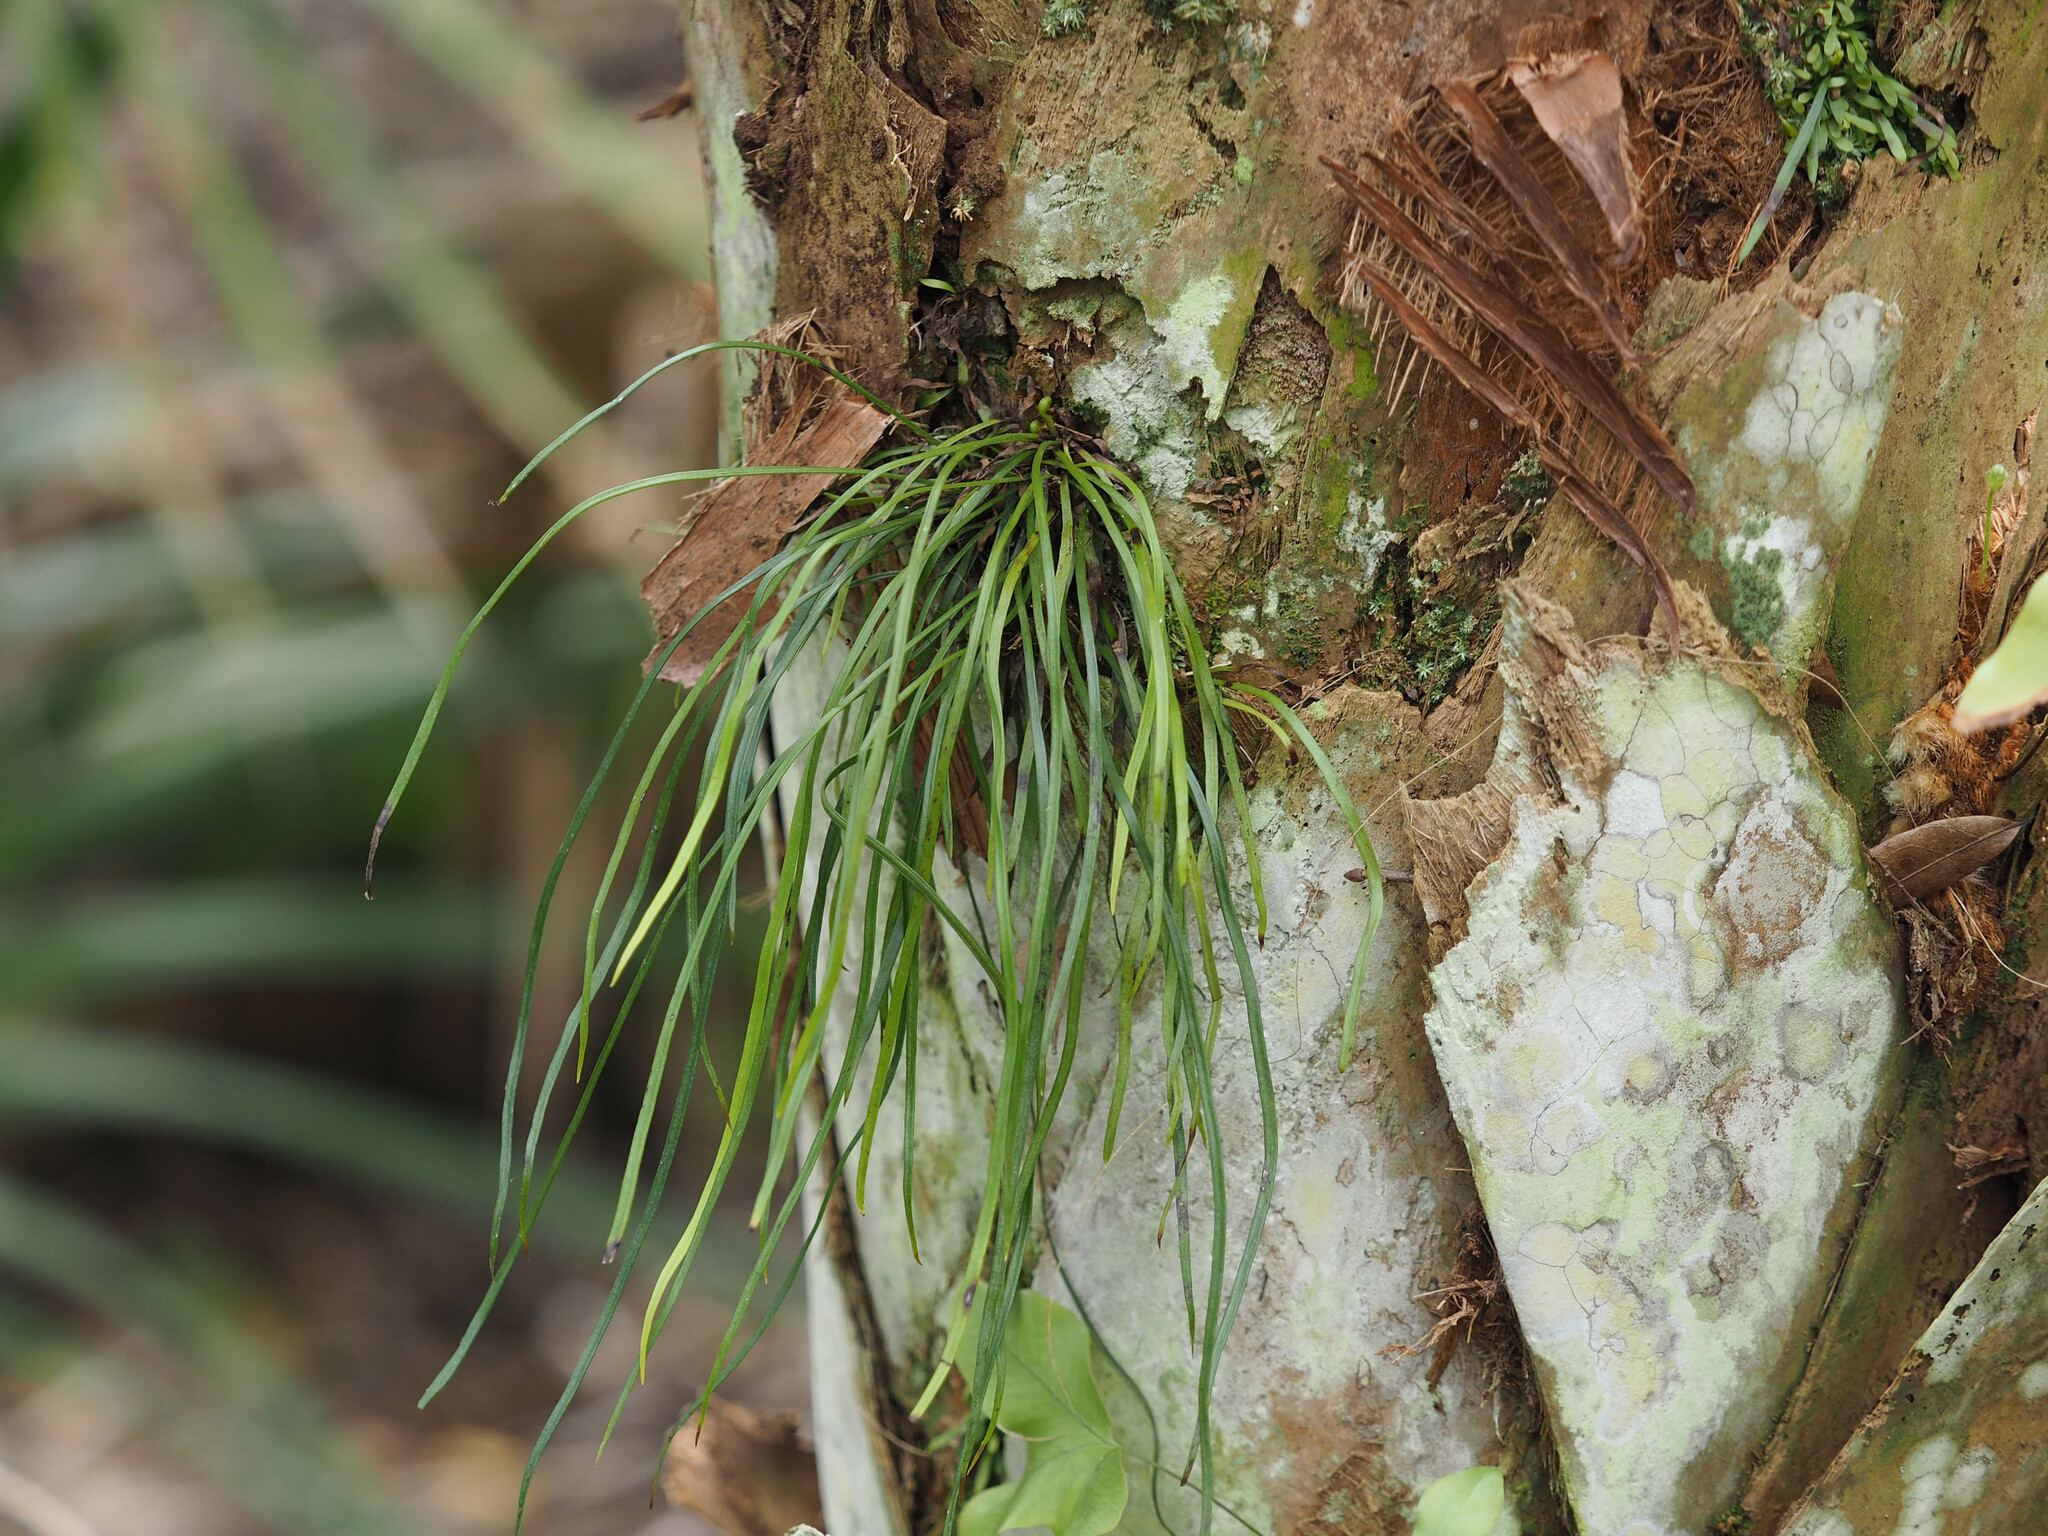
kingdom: Plantae
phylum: Tracheophyta
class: Polypodiopsida
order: Polypodiales
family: Pteridaceae
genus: Vittaria
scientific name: Vittaria lineata
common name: Shoestring fern
